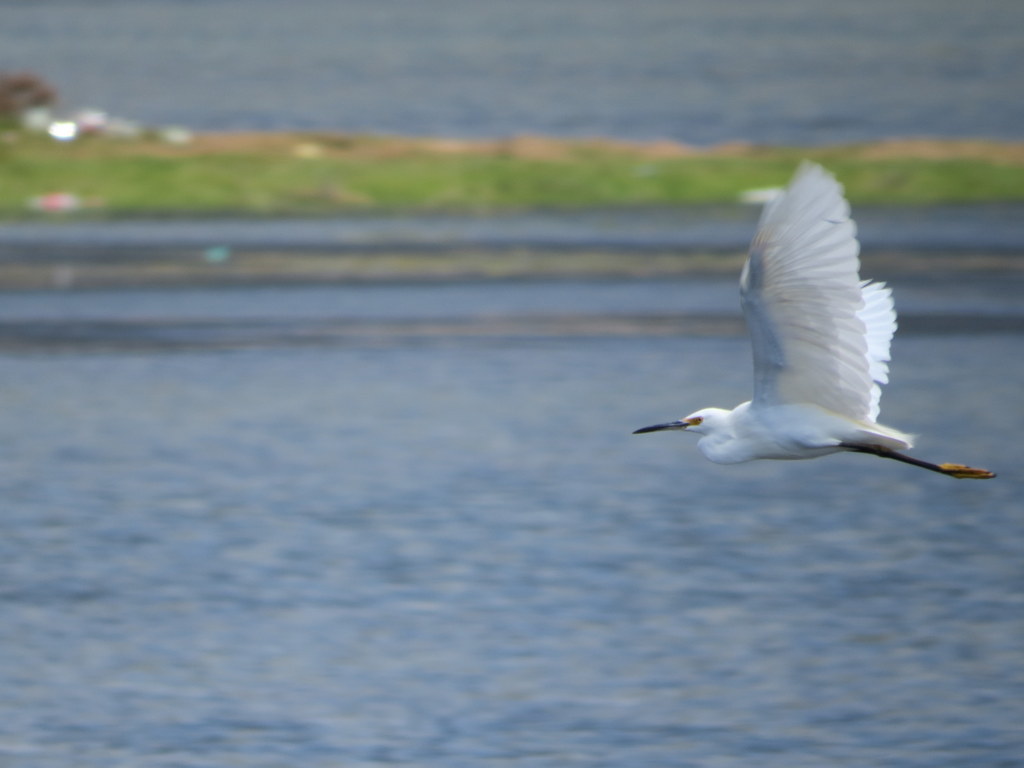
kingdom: Animalia
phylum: Chordata
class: Aves
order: Pelecaniformes
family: Ardeidae
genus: Egretta
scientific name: Egretta thula
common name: Snowy egret
